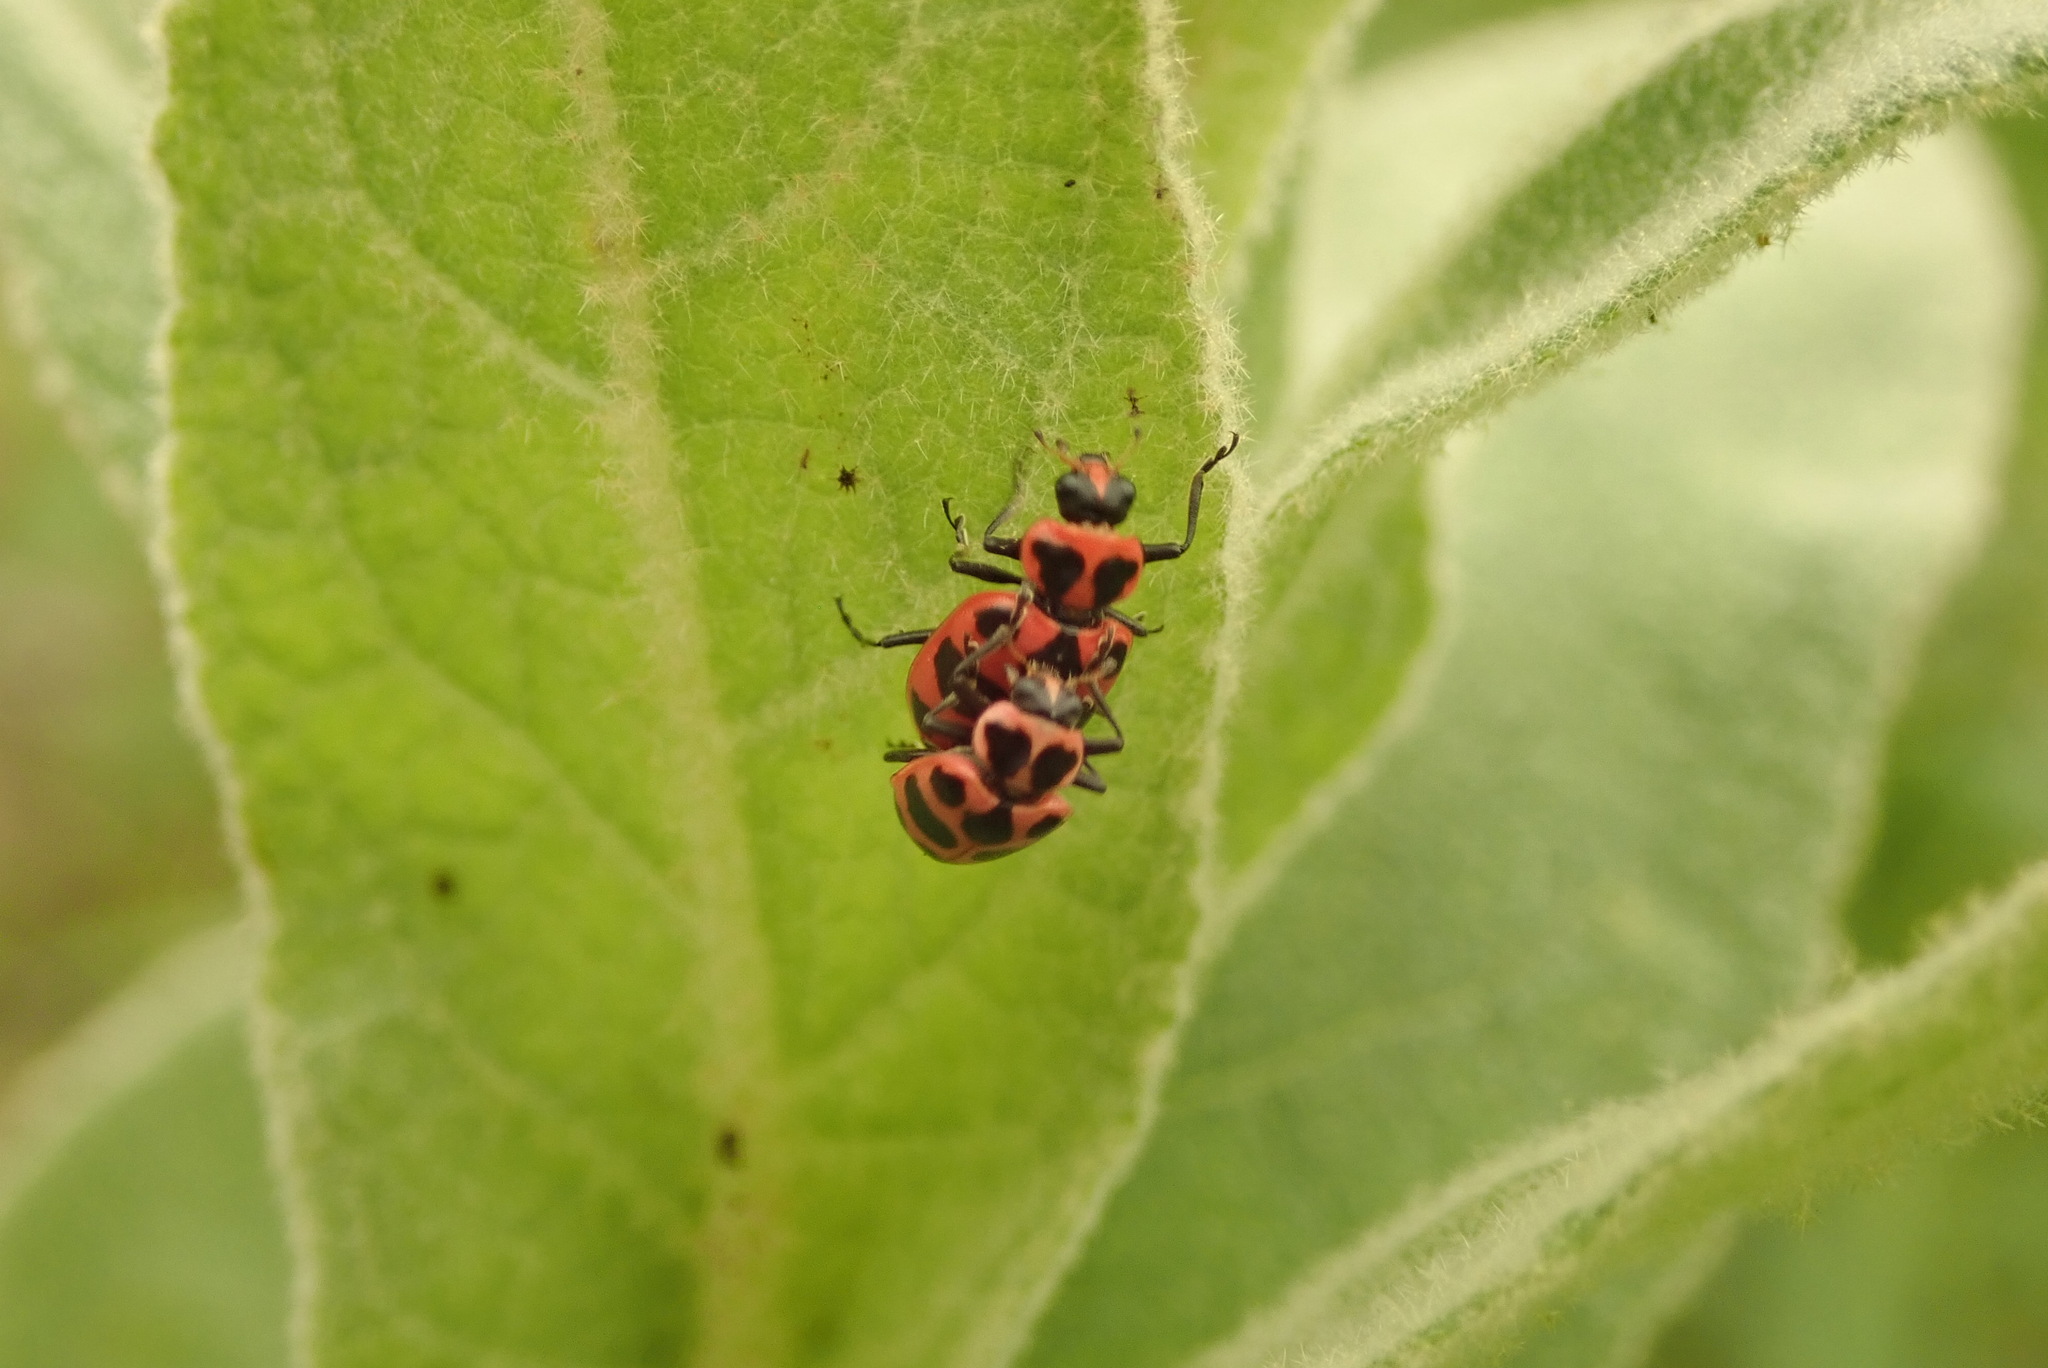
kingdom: Animalia
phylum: Arthropoda
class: Insecta
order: Coleoptera
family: Coccinellidae
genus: Coleomegilla
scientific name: Coleomegilla maculata
